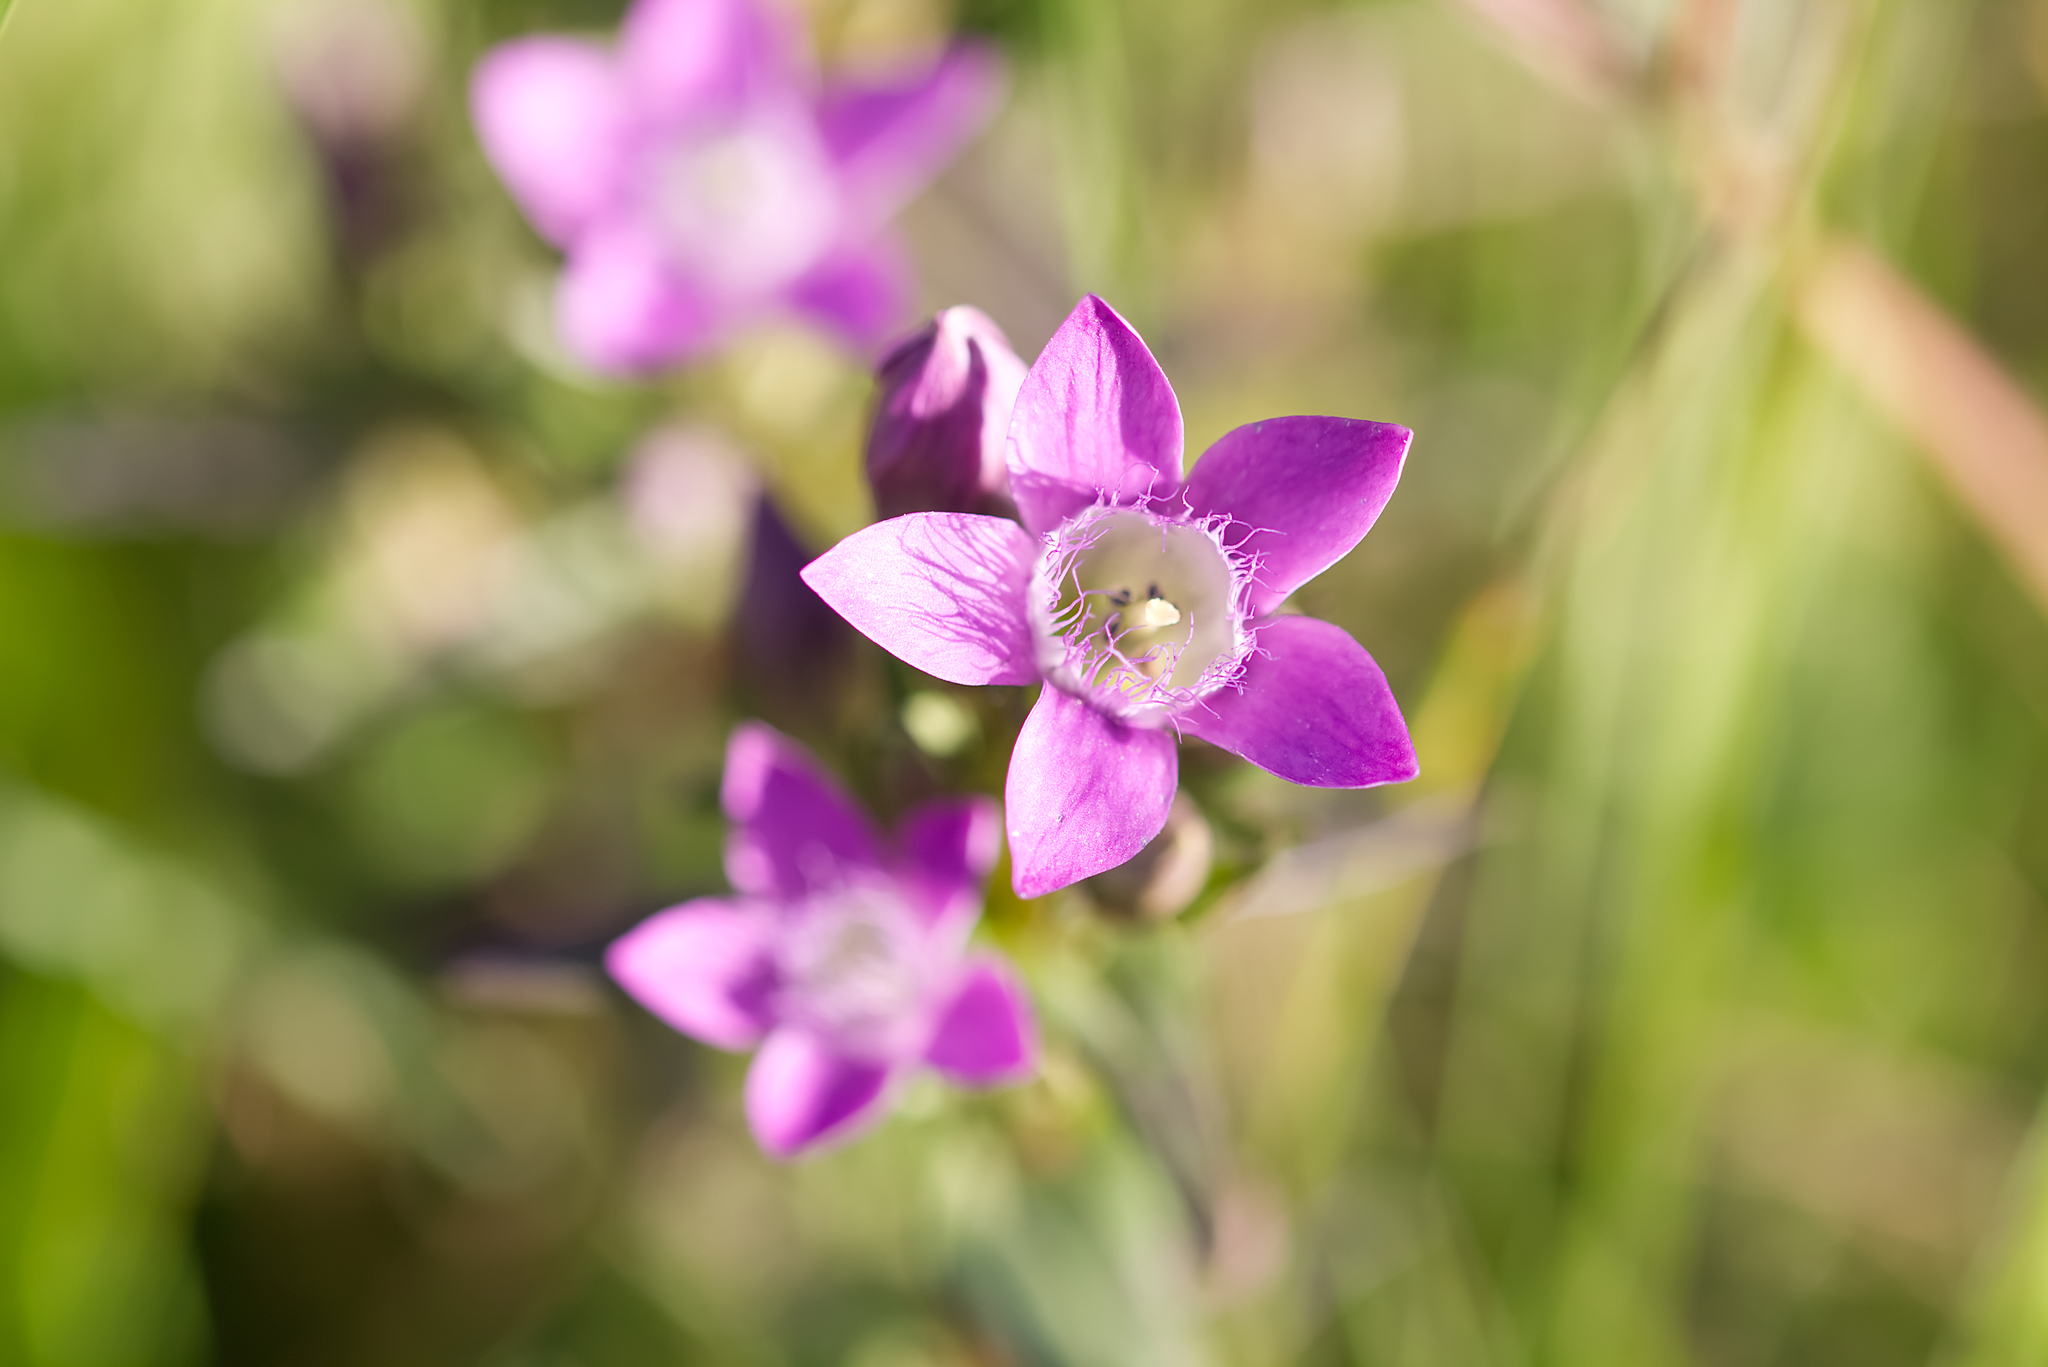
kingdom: Plantae
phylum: Tracheophyta
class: Magnoliopsida
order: Gentianales
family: Gentianaceae
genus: Gentianella
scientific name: Gentianella praecox
